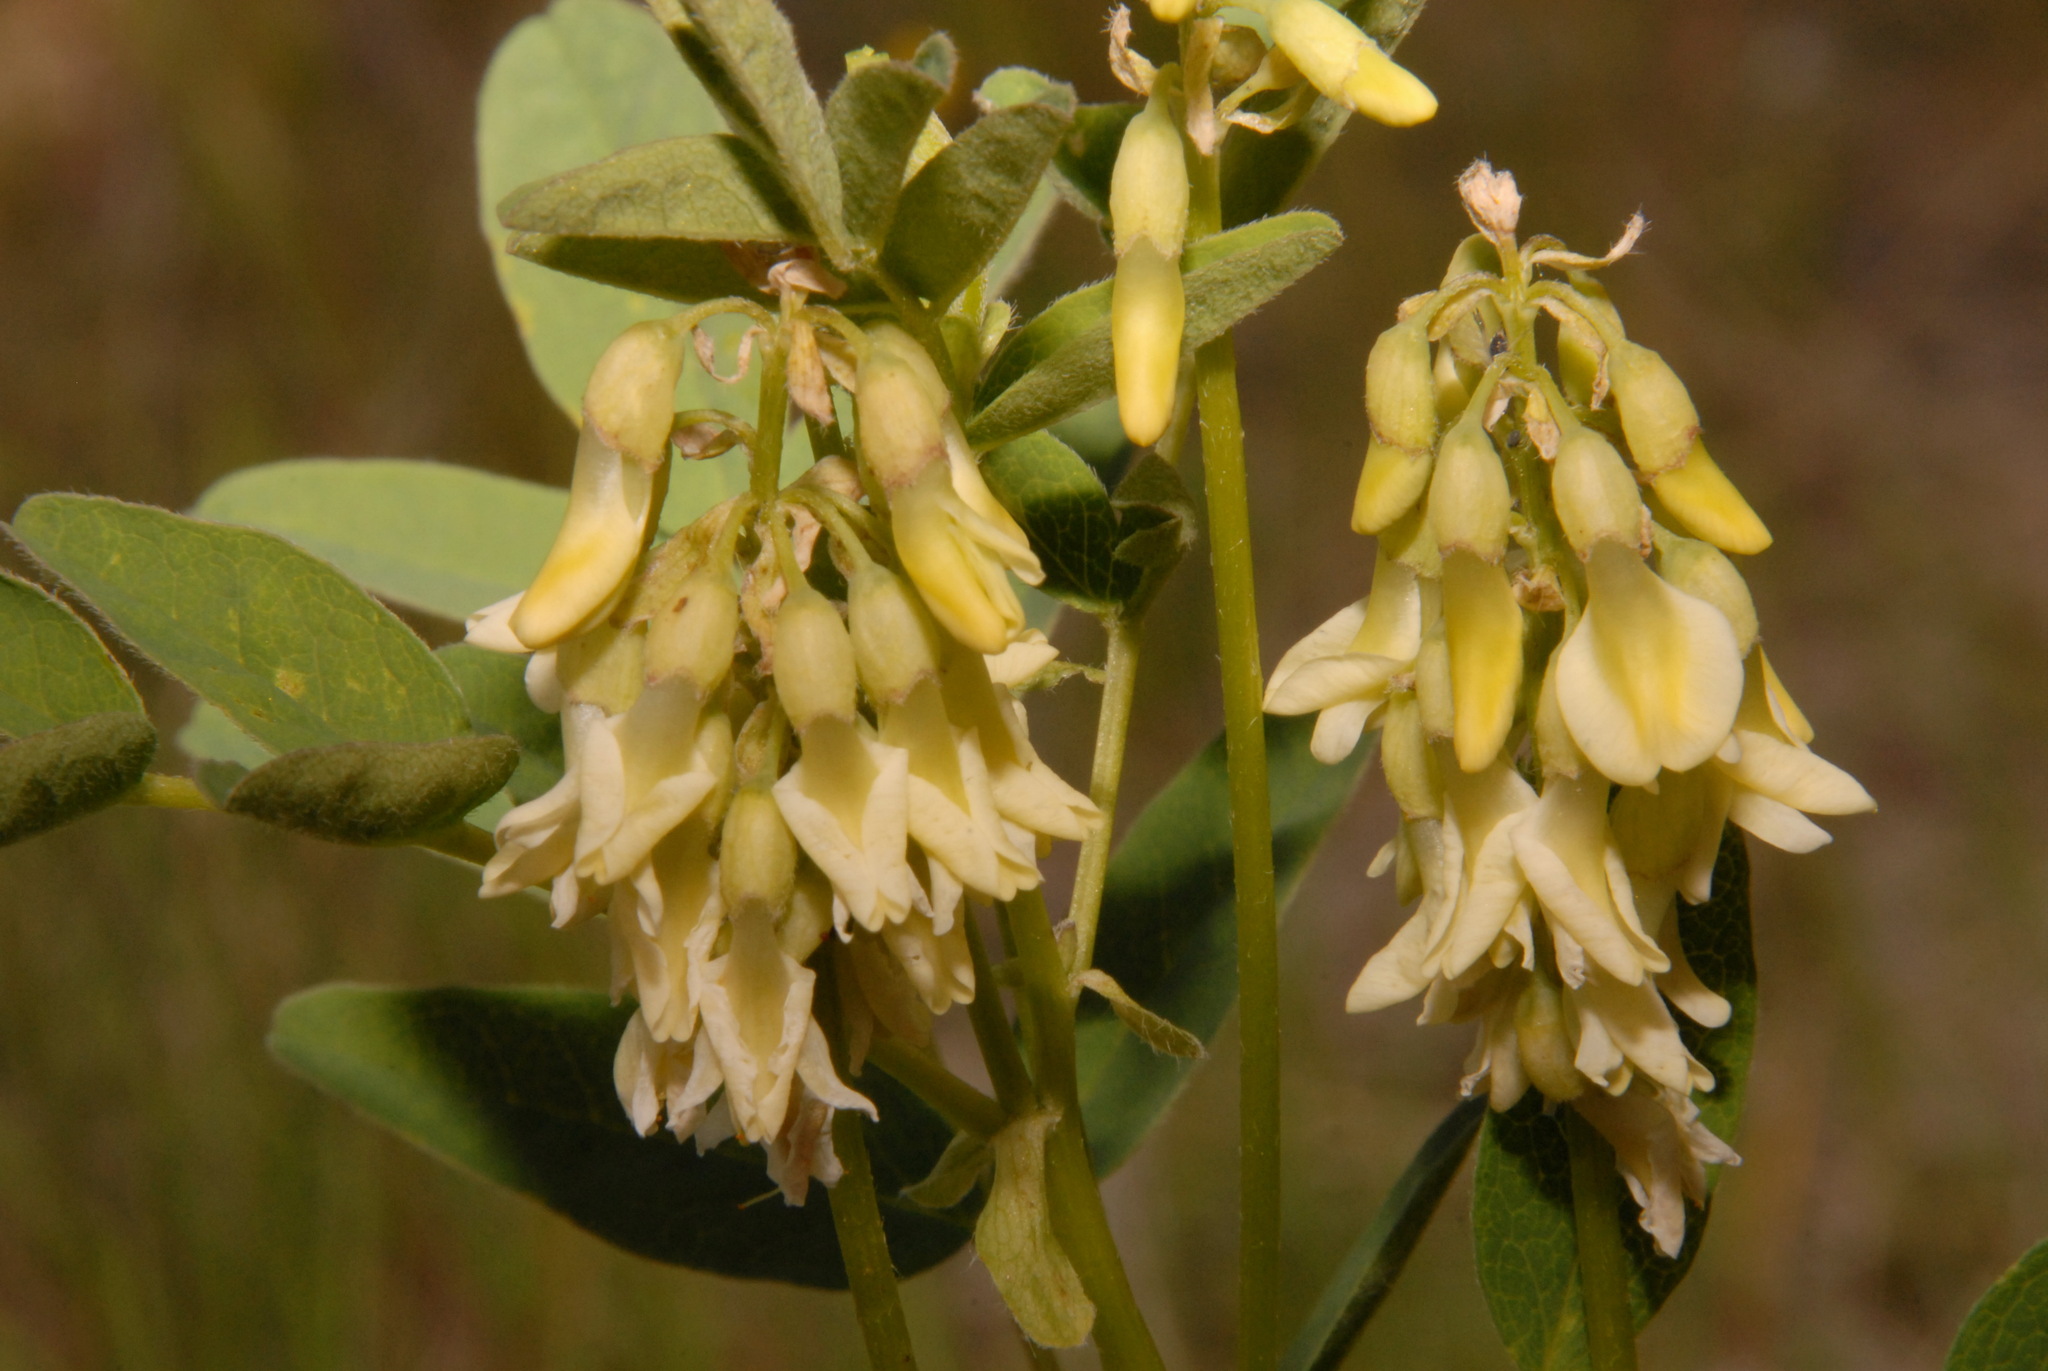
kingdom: Plantae
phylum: Tracheophyta
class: Magnoliopsida
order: Fabales
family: Fabaceae
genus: Astragalus
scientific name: Astragalus americanus
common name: American milk-vetch
